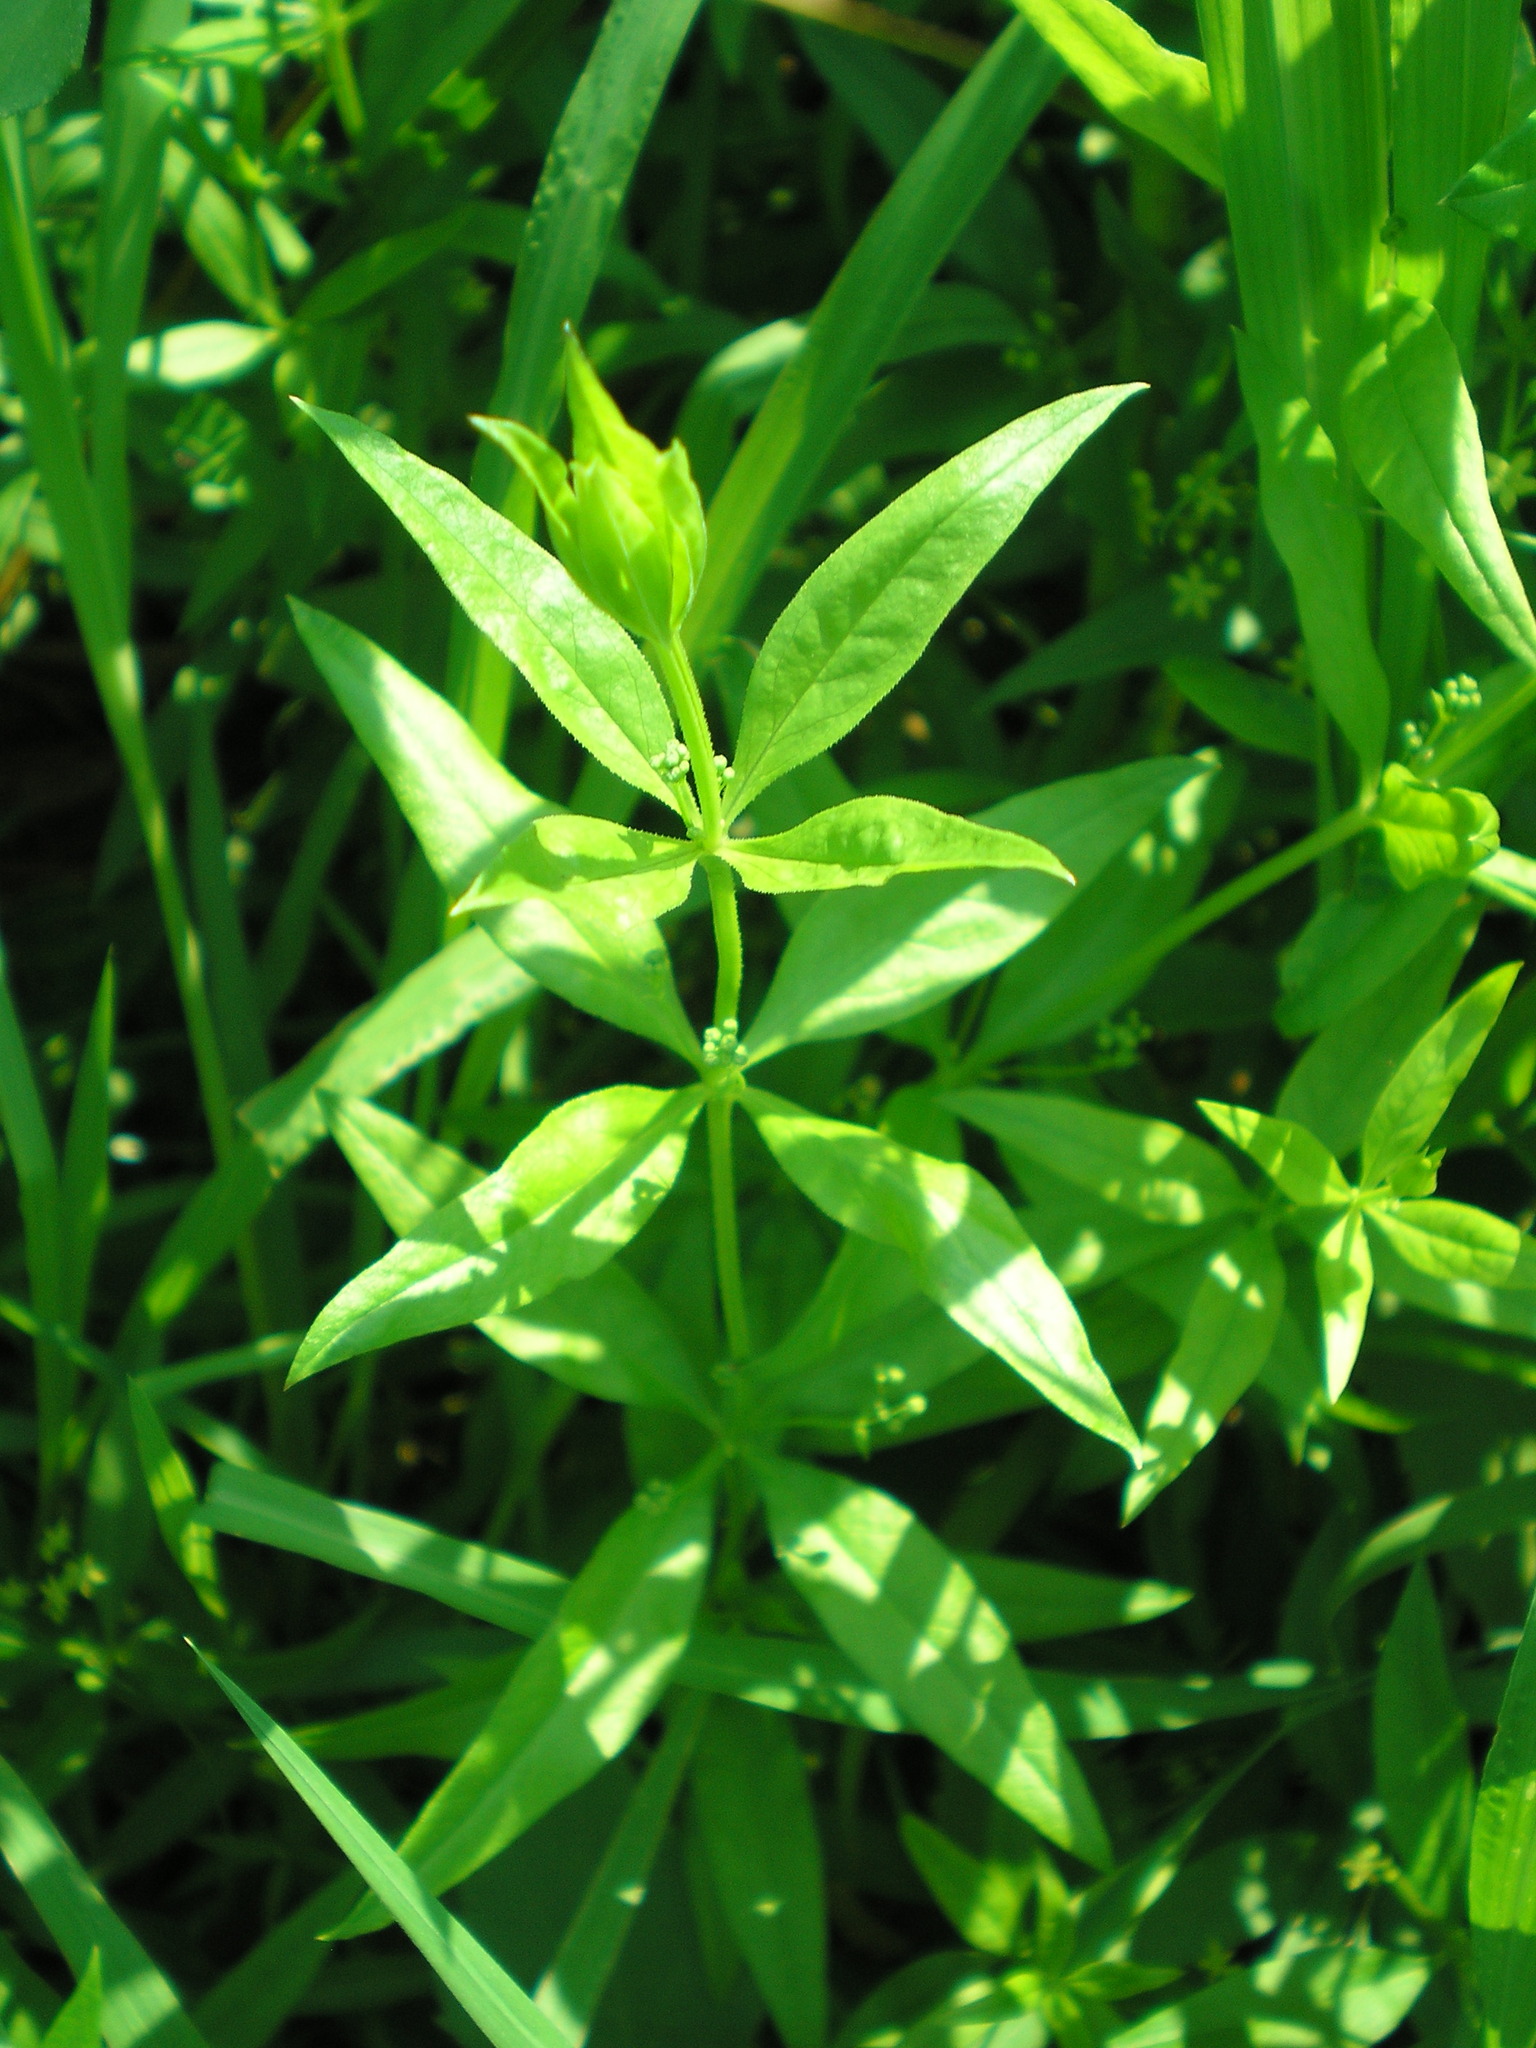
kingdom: Plantae
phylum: Tracheophyta
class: Magnoliopsida
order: Gentianales
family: Rubiaceae
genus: Rubia
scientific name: Rubia tinctorum
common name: Dyer's madder
